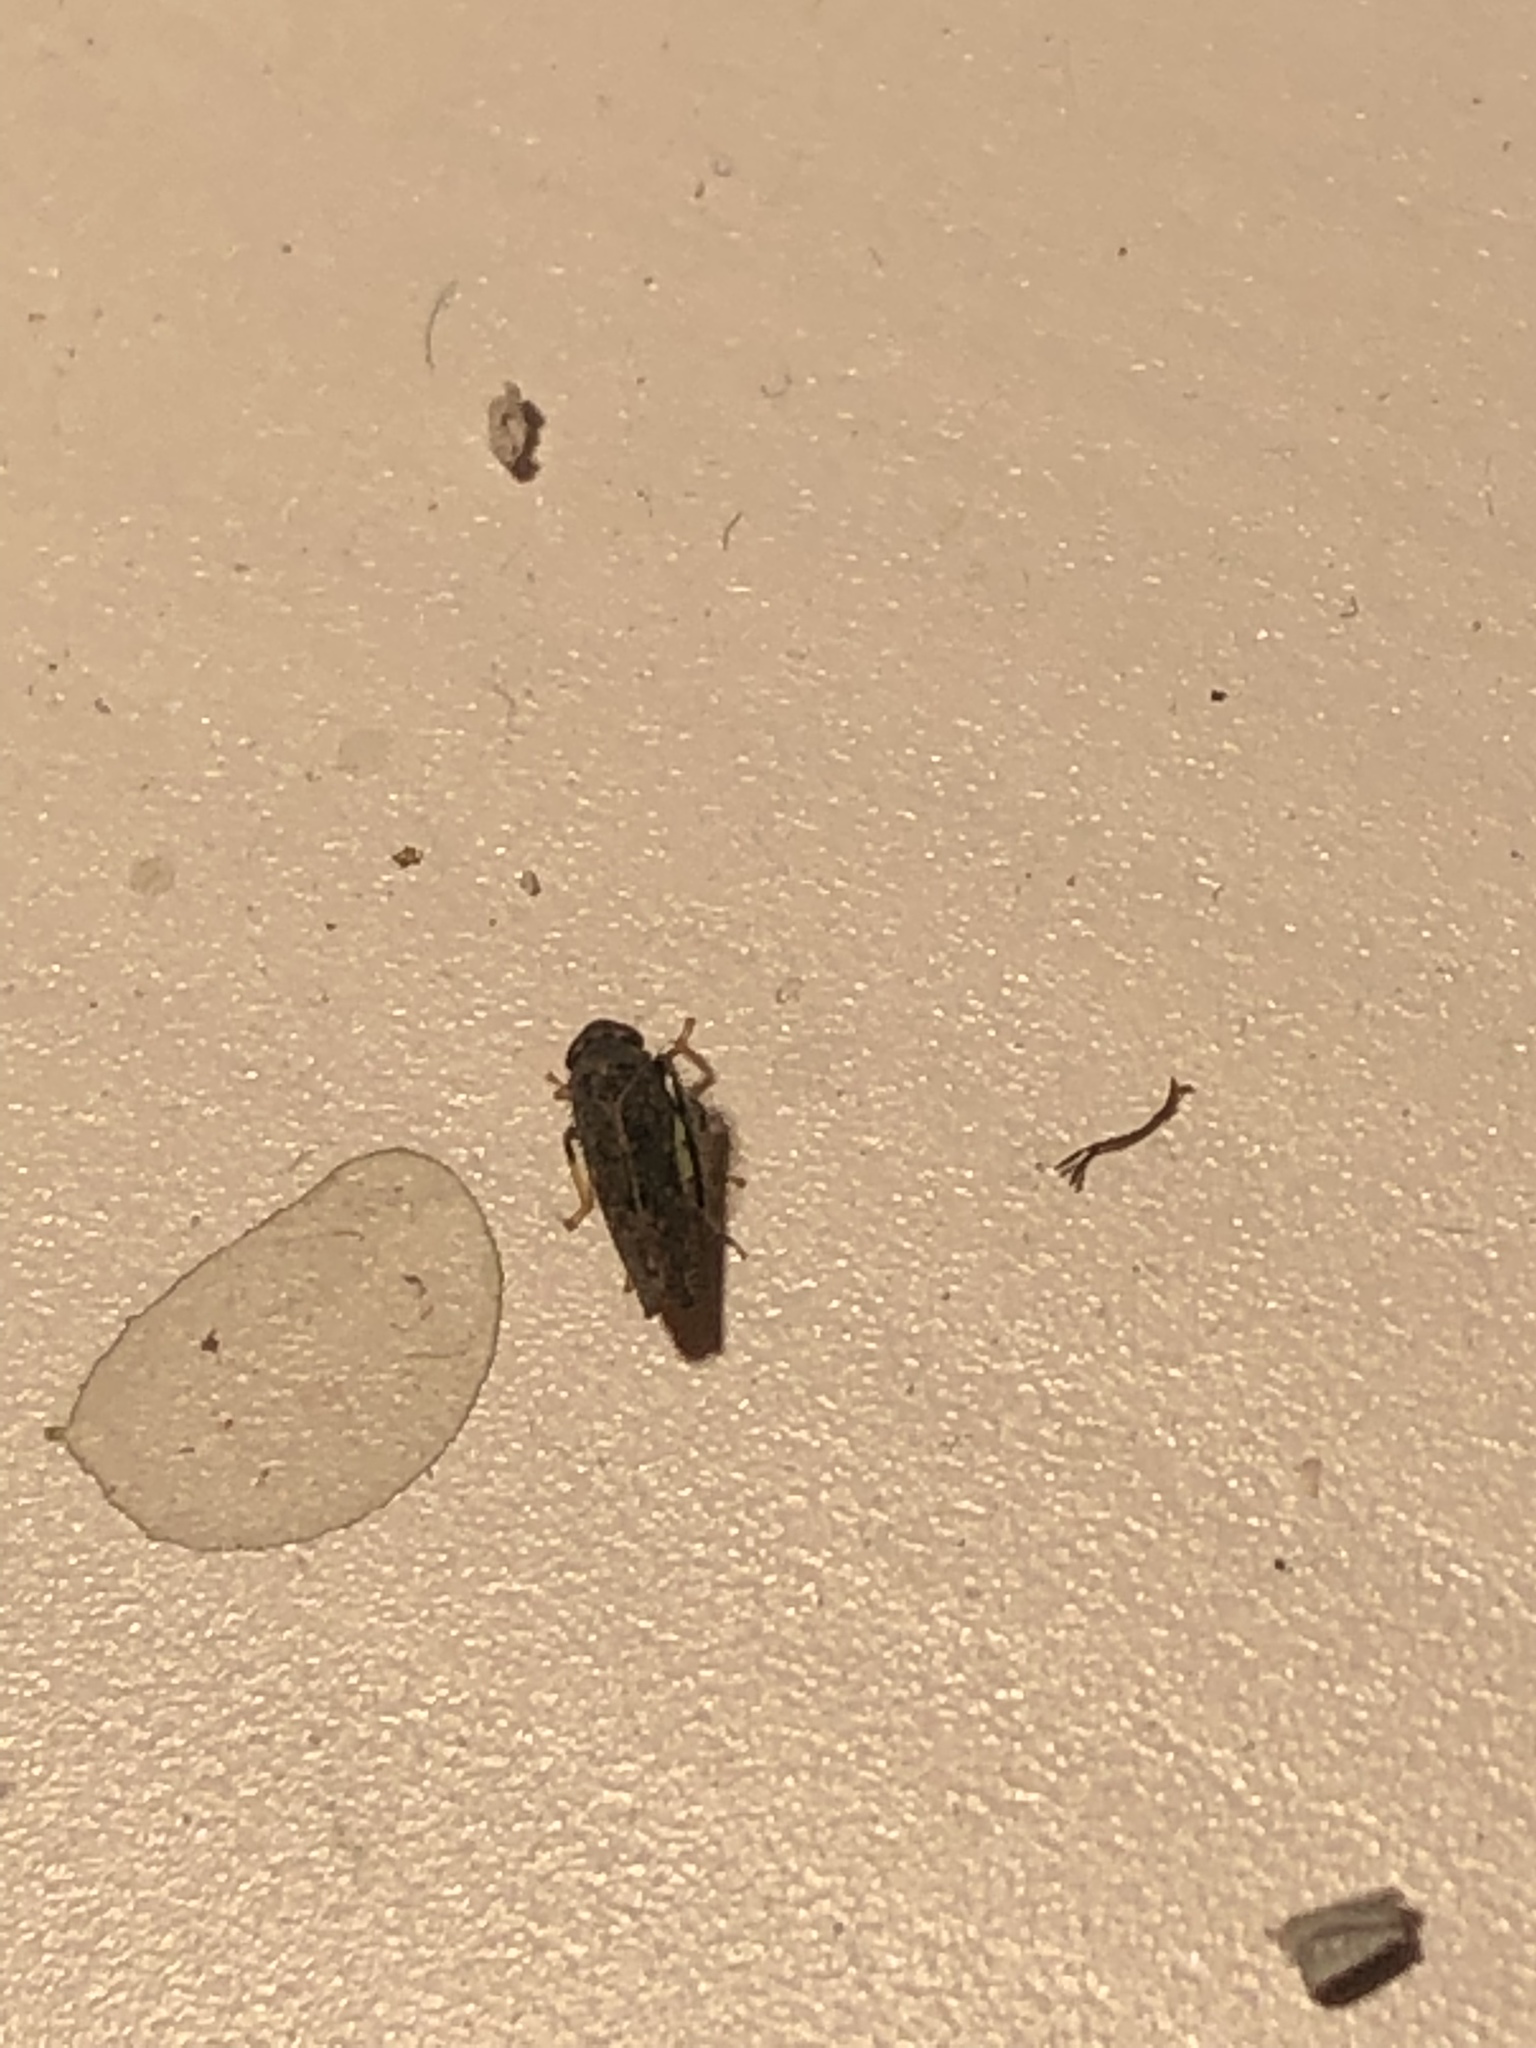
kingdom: Animalia
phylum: Arthropoda
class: Insecta
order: Hemiptera
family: Cicadellidae
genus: Orientus
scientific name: Orientus ishidae
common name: Japanese leafhopper
